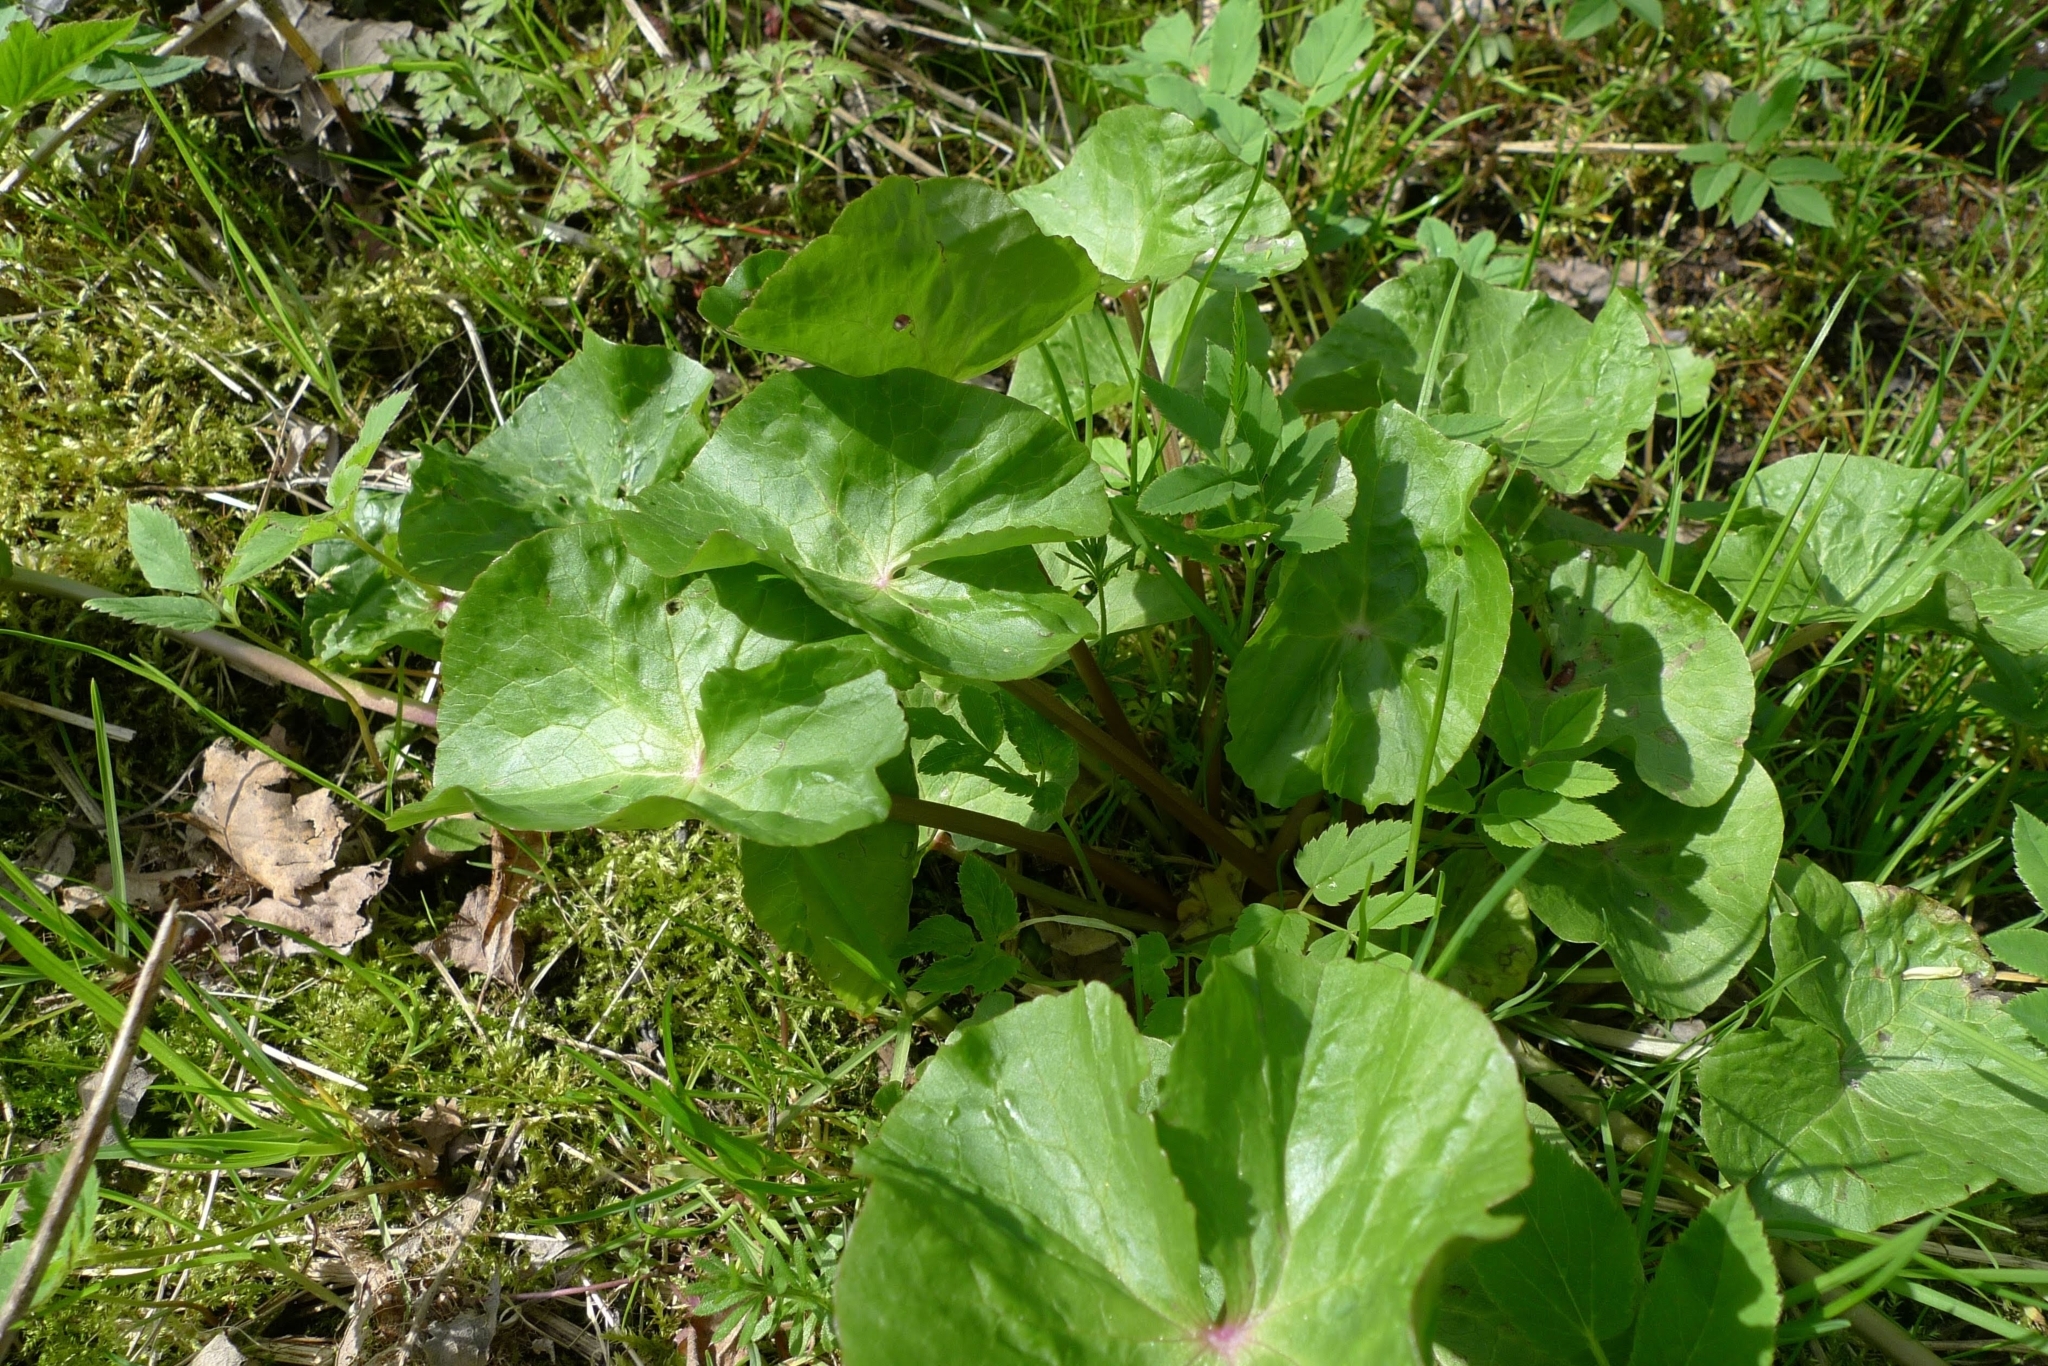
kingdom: Plantae
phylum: Tracheophyta
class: Magnoliopsida
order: Ranunculales
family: Ranunculaceae
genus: Caltha
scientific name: Caltha palustris
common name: Marsh marigold
